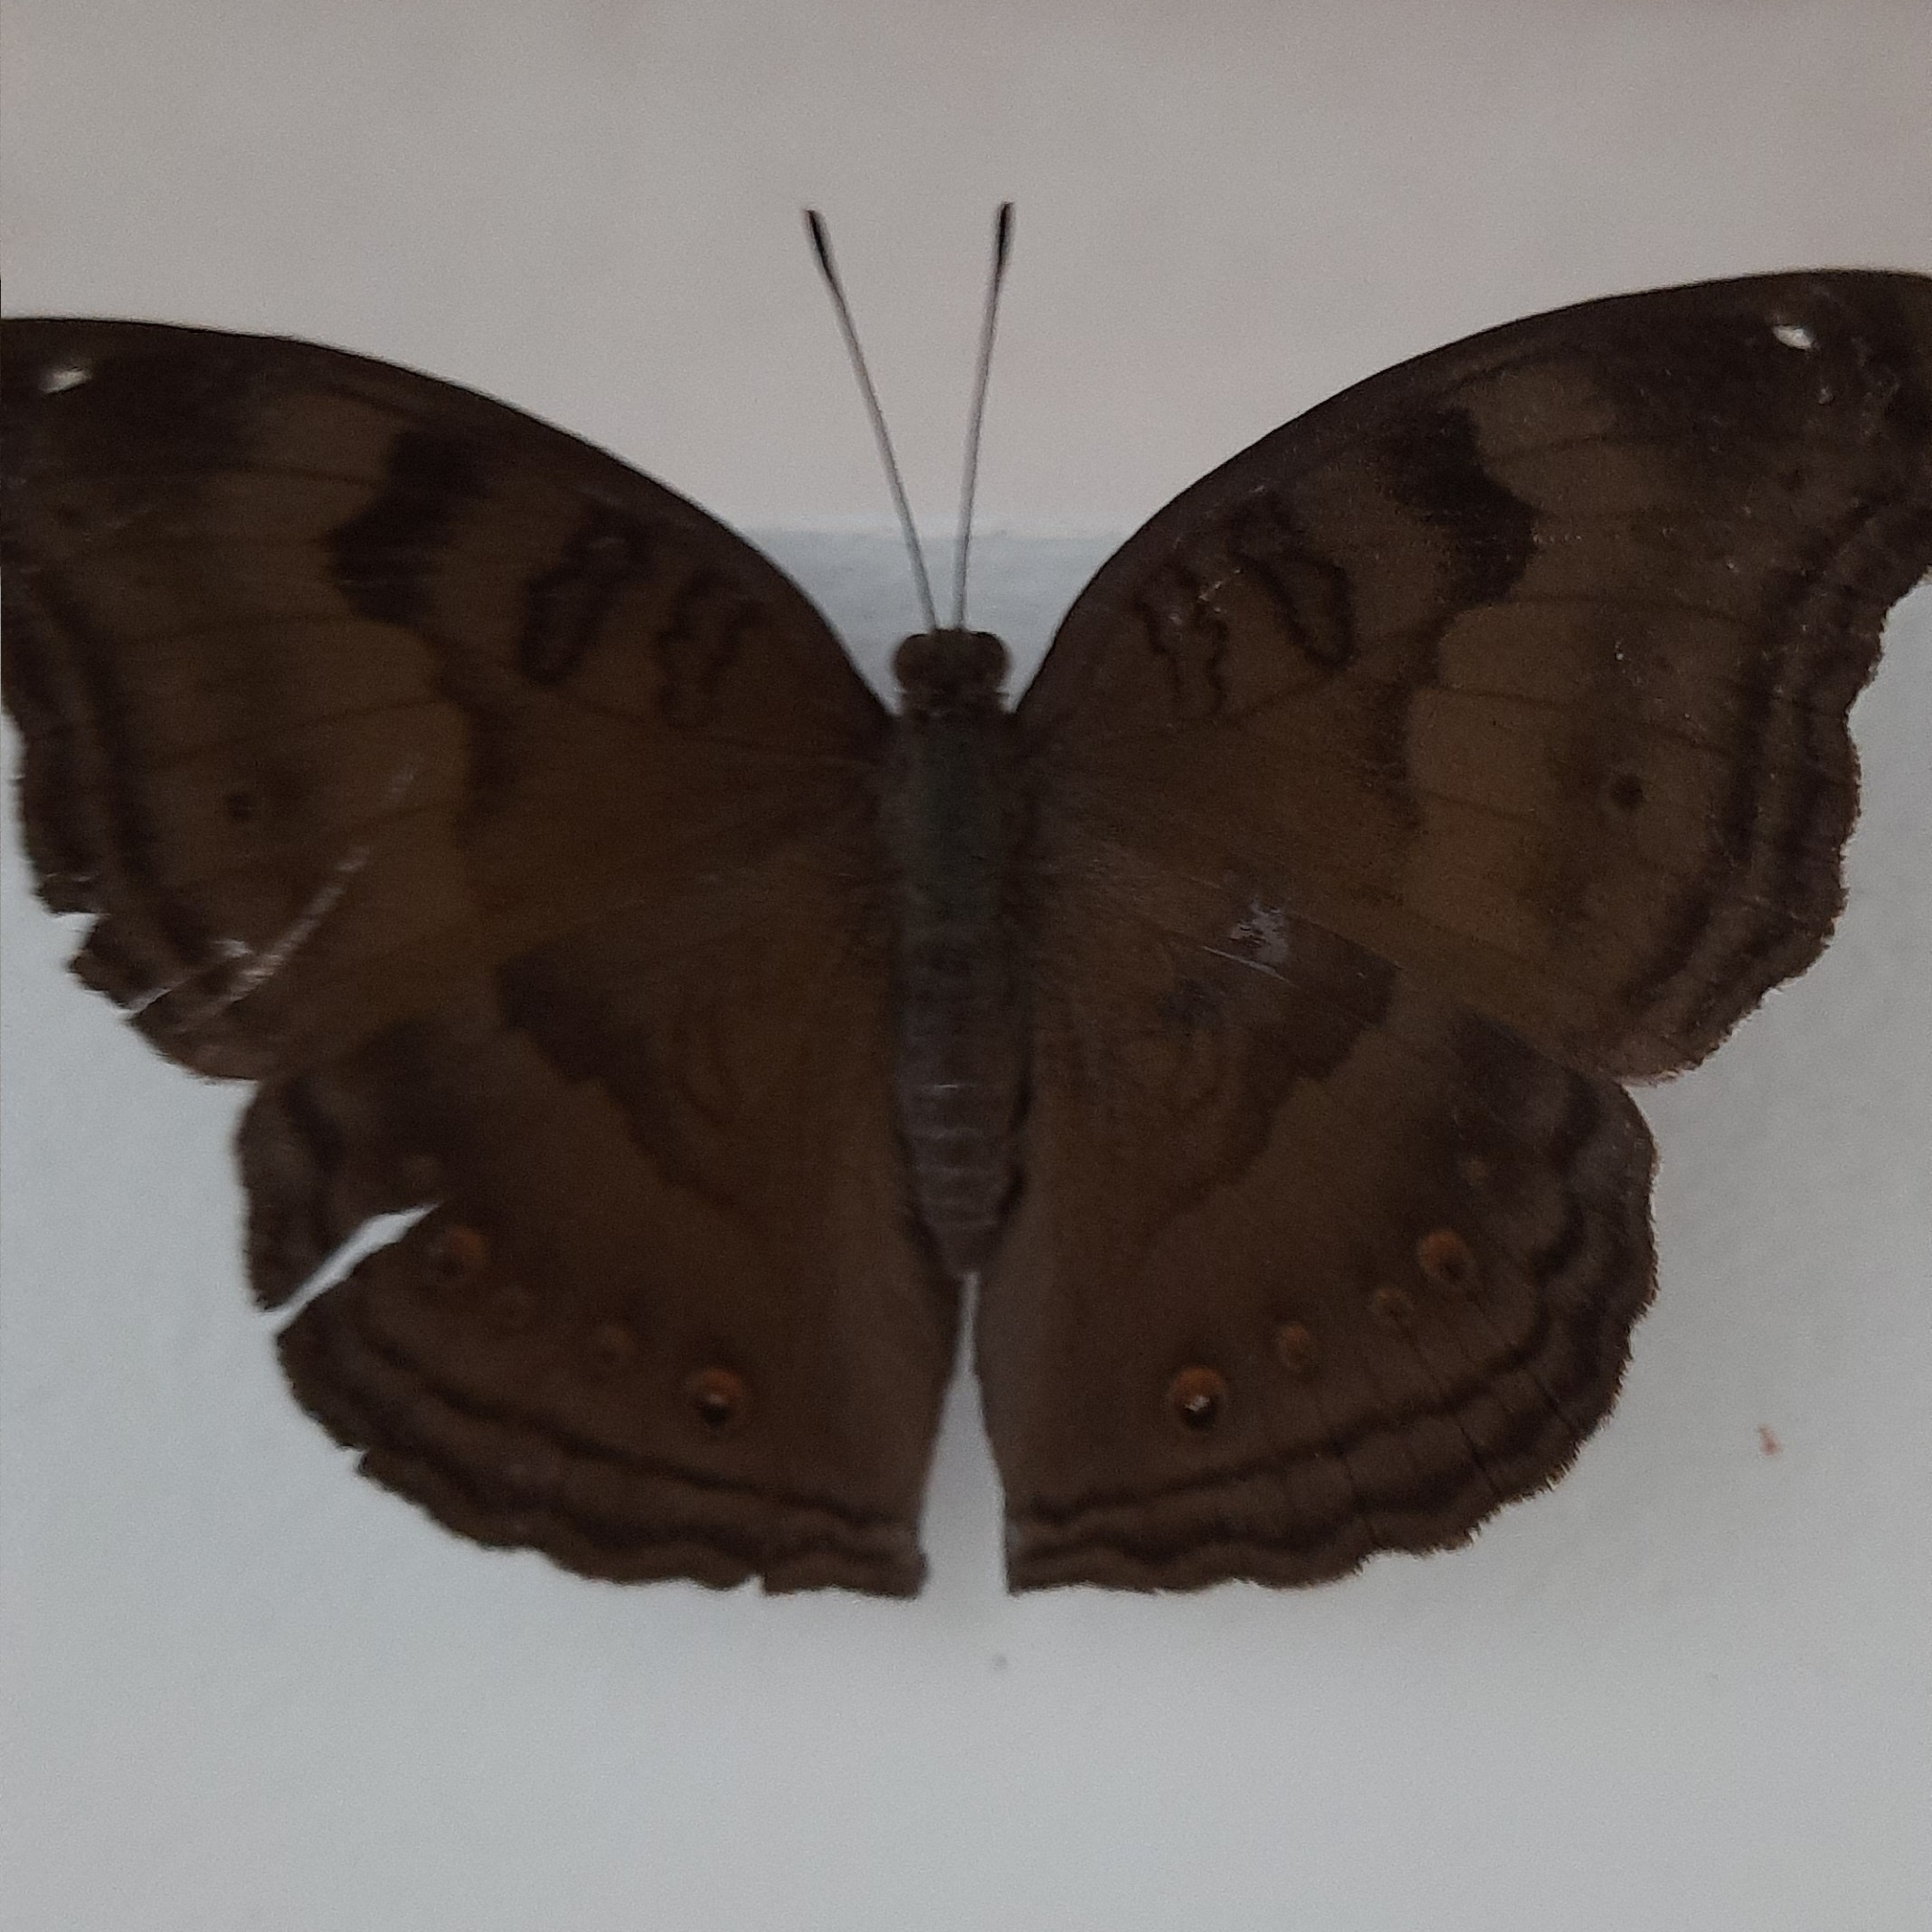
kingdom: Animalia
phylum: Arthropoda
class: Insecta
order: Lepidoptera
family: Nymphalidae
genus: Junonia
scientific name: Junonia iphita
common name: Chocolate pansy
